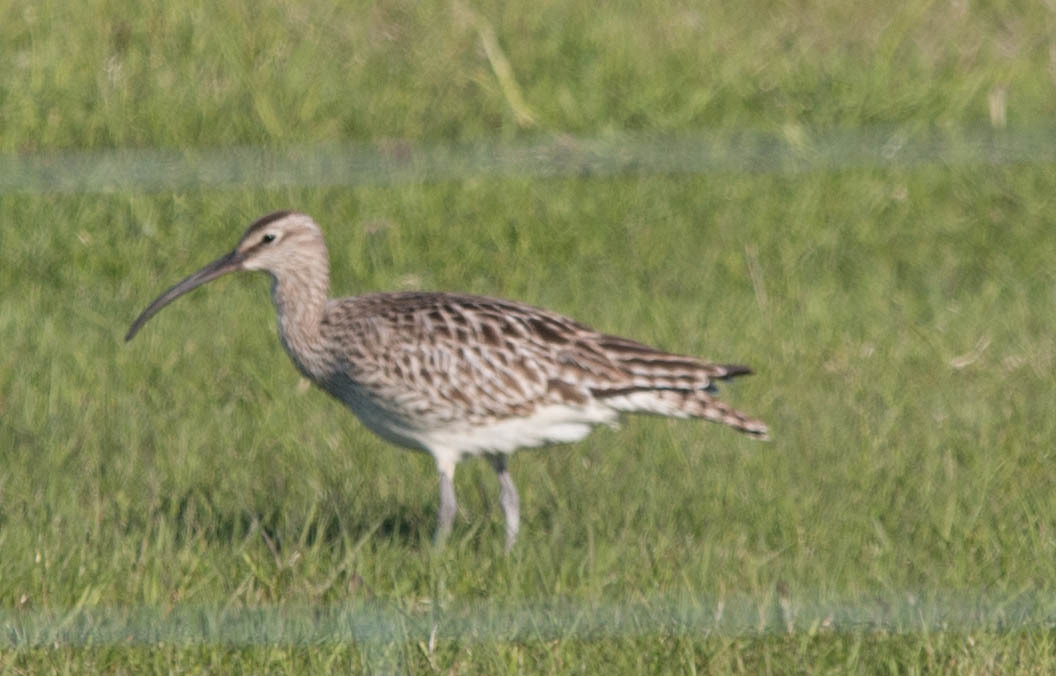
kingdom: Animalia
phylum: Chordata
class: Aves
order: Charadriiformes
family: Scolopacidae
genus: Numenius
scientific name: Numenius phaeopus
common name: Whimbrel
